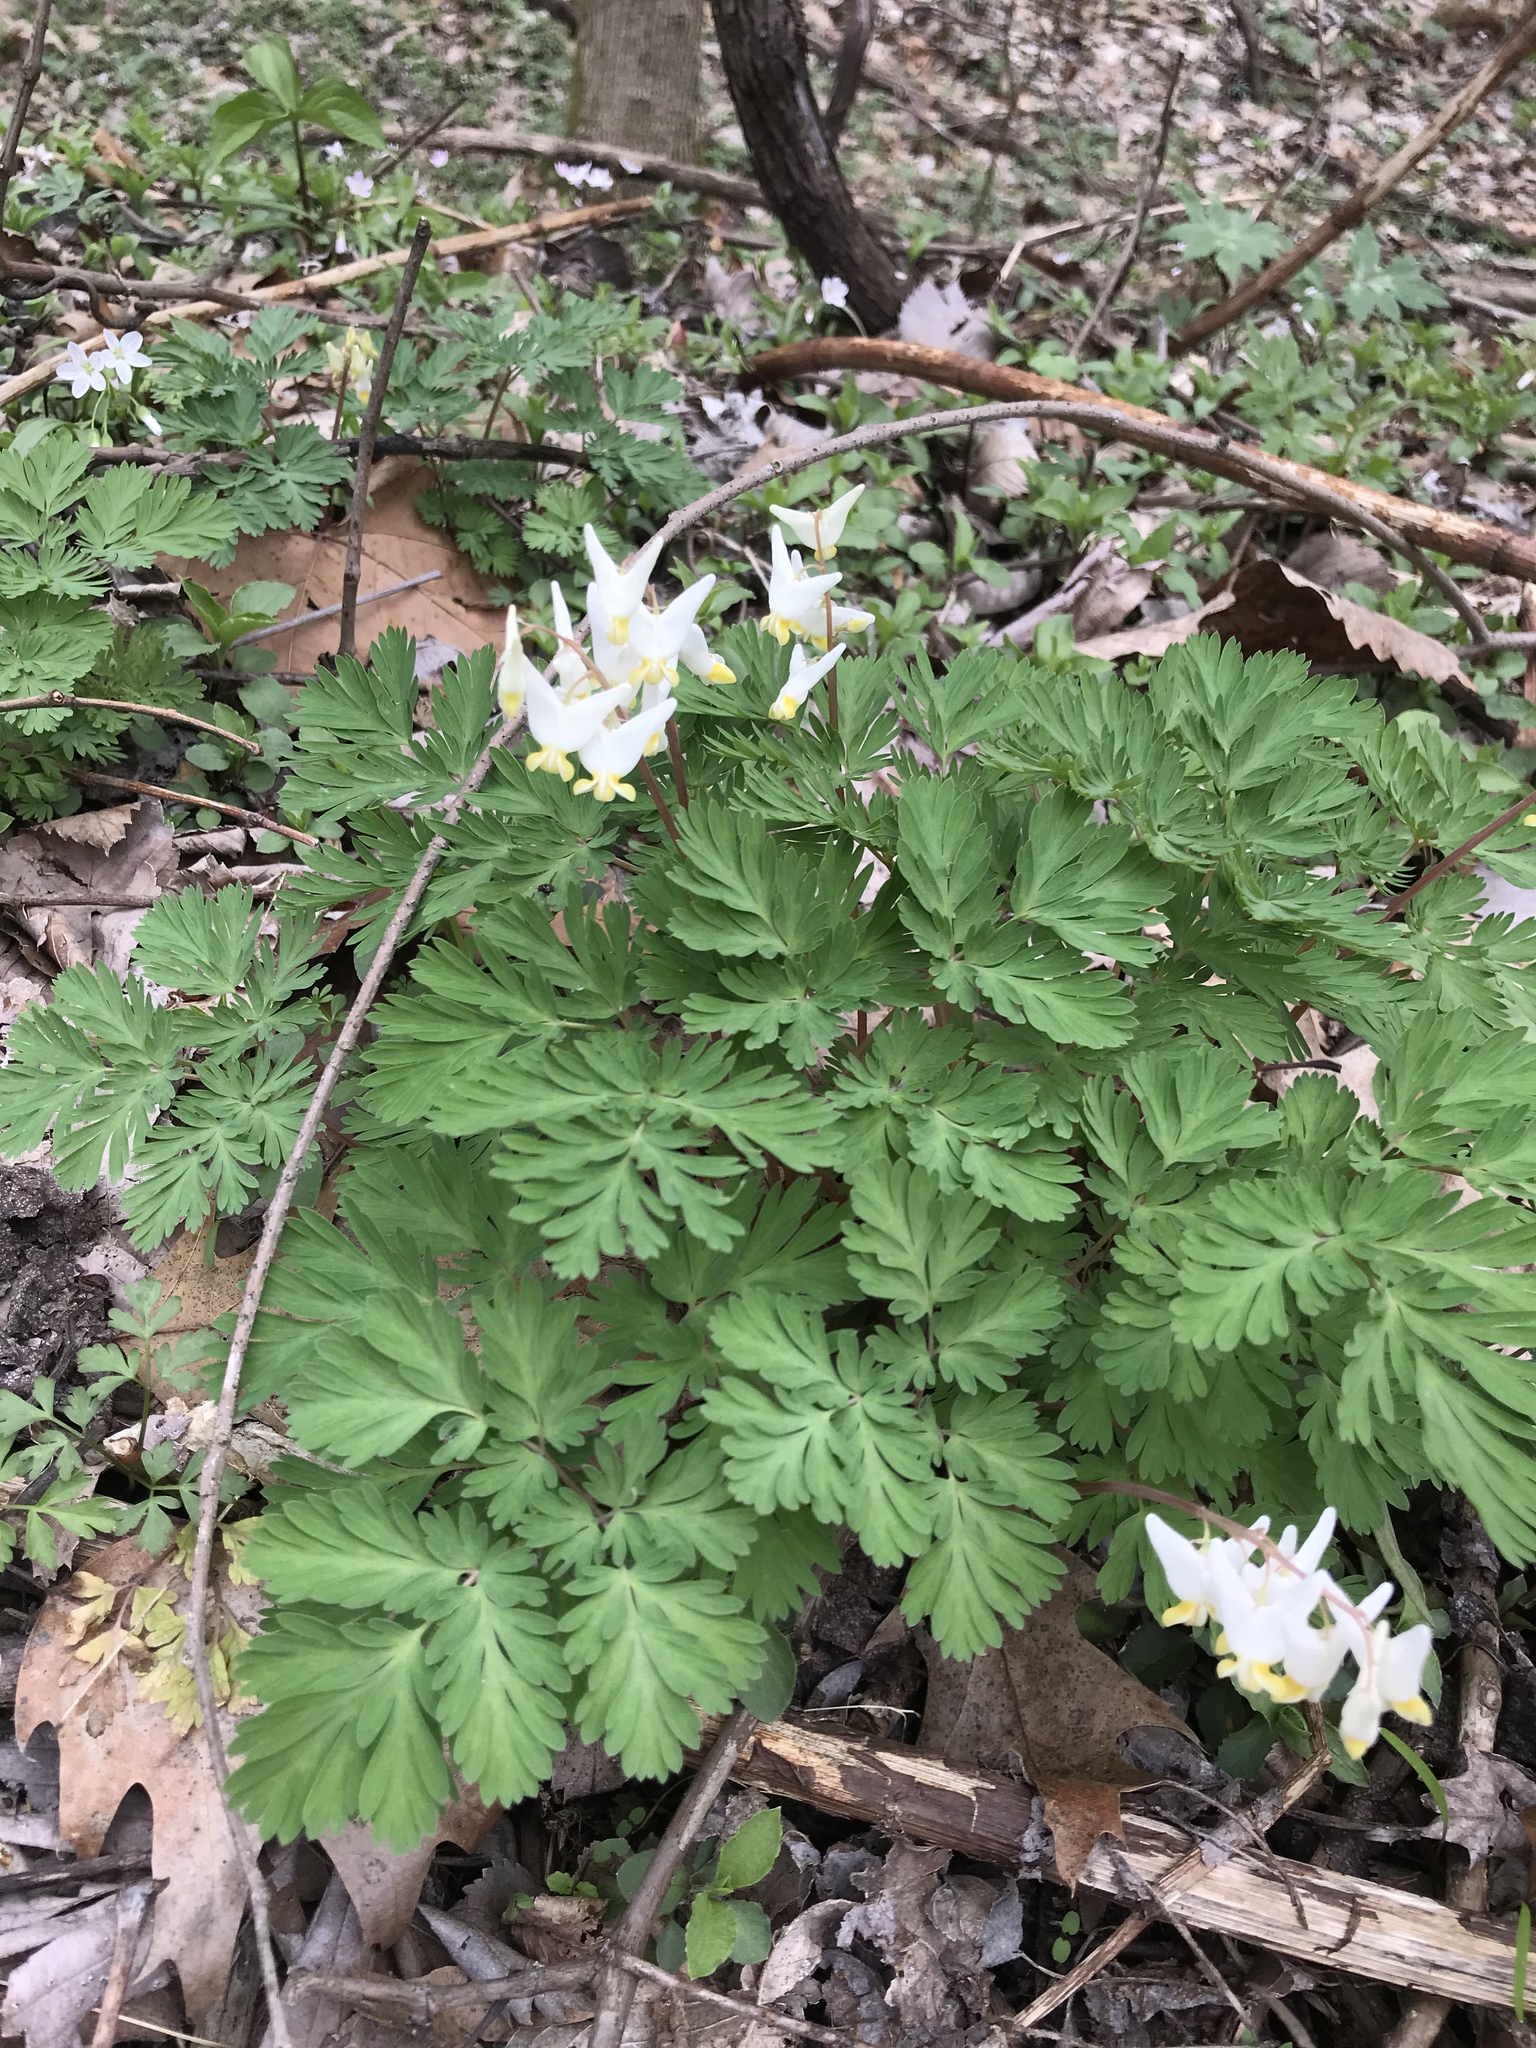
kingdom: Plantae
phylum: Tracheophyta
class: Magnoliopsida
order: Ranunculales
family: Papaveraceae
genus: Dicentra
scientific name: Dicentra cucullaria
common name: Dutchman's breeches
